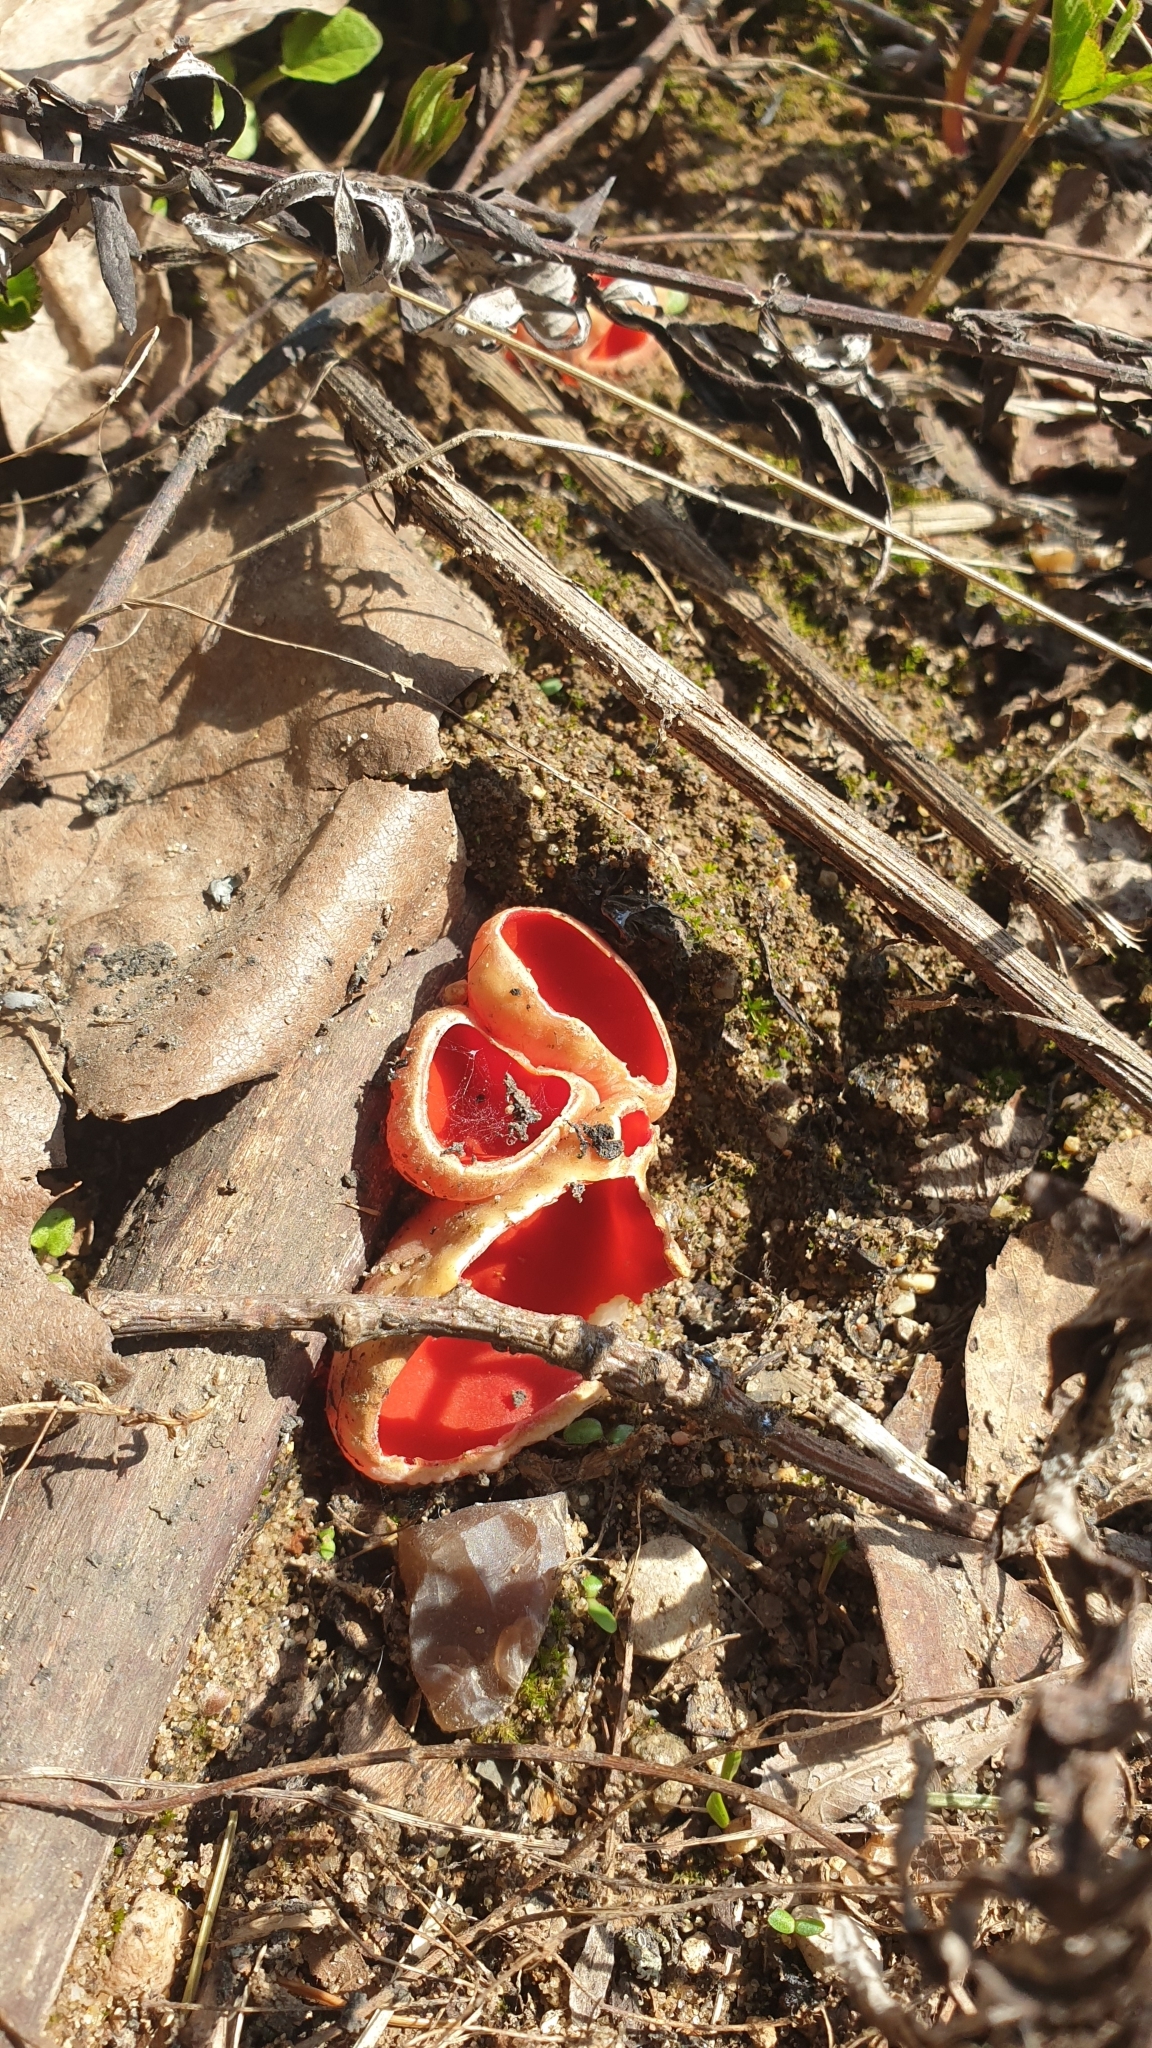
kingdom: Fungi
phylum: Ascomycota
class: Pezizomycetes
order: Pezizales
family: Sarcoscyphaceae
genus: Sarcoscypha
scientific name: Sarcoscypha austriaca
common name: Scarlet elfcup
